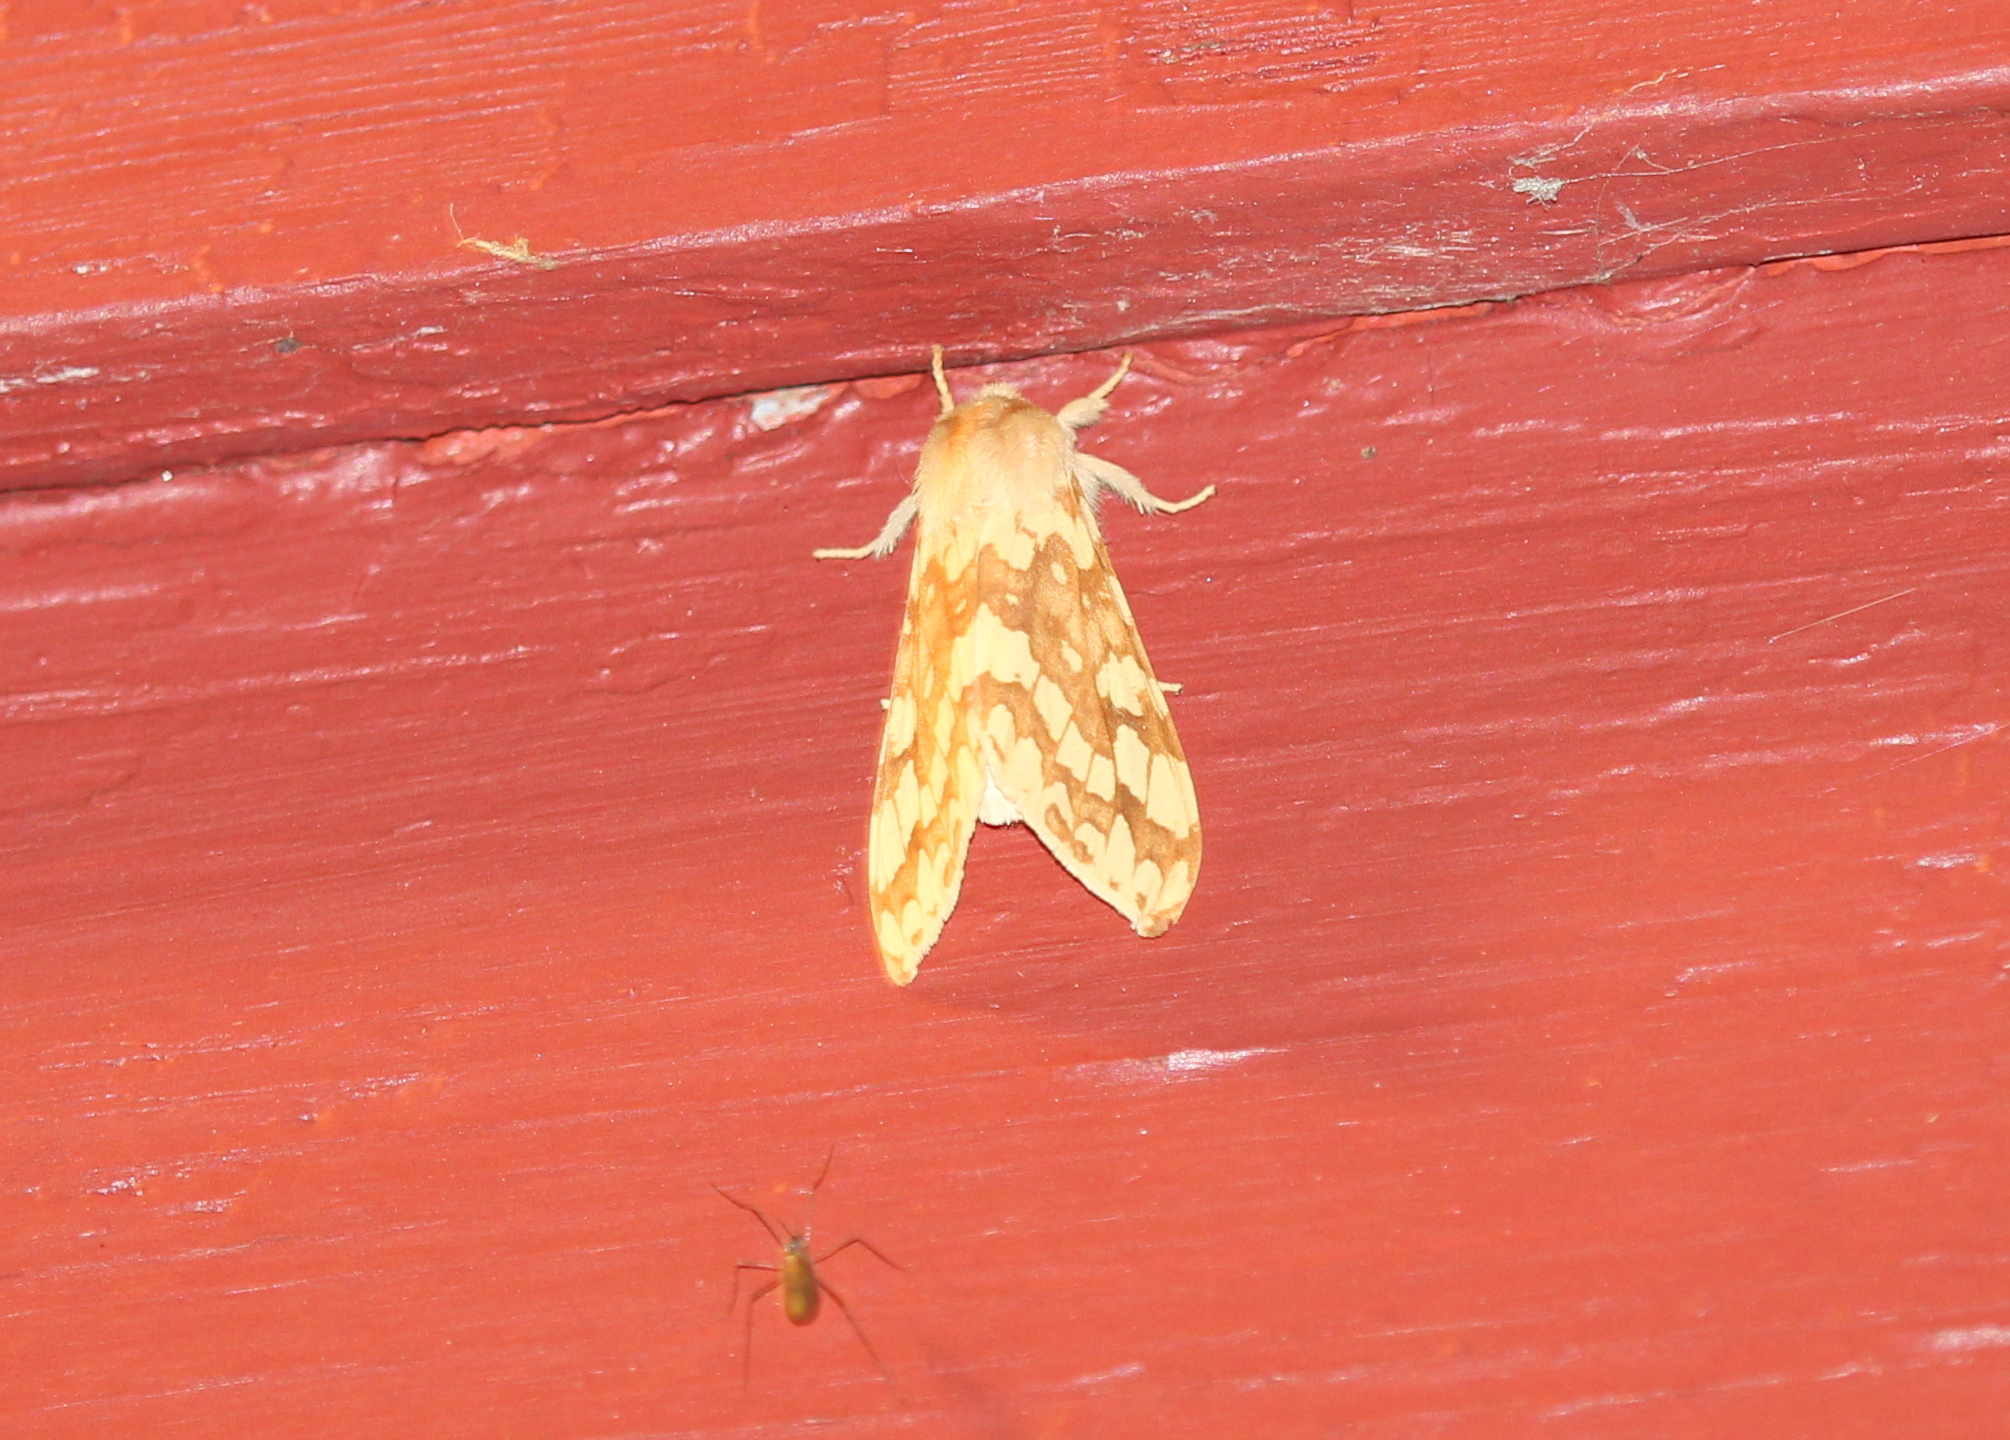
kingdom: Animalia
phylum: Arthropoda
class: Insecta
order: Lepidoptera
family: Erebidae
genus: Lophocampa
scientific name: Lophocampa maculata
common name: Spotted tussock moth
